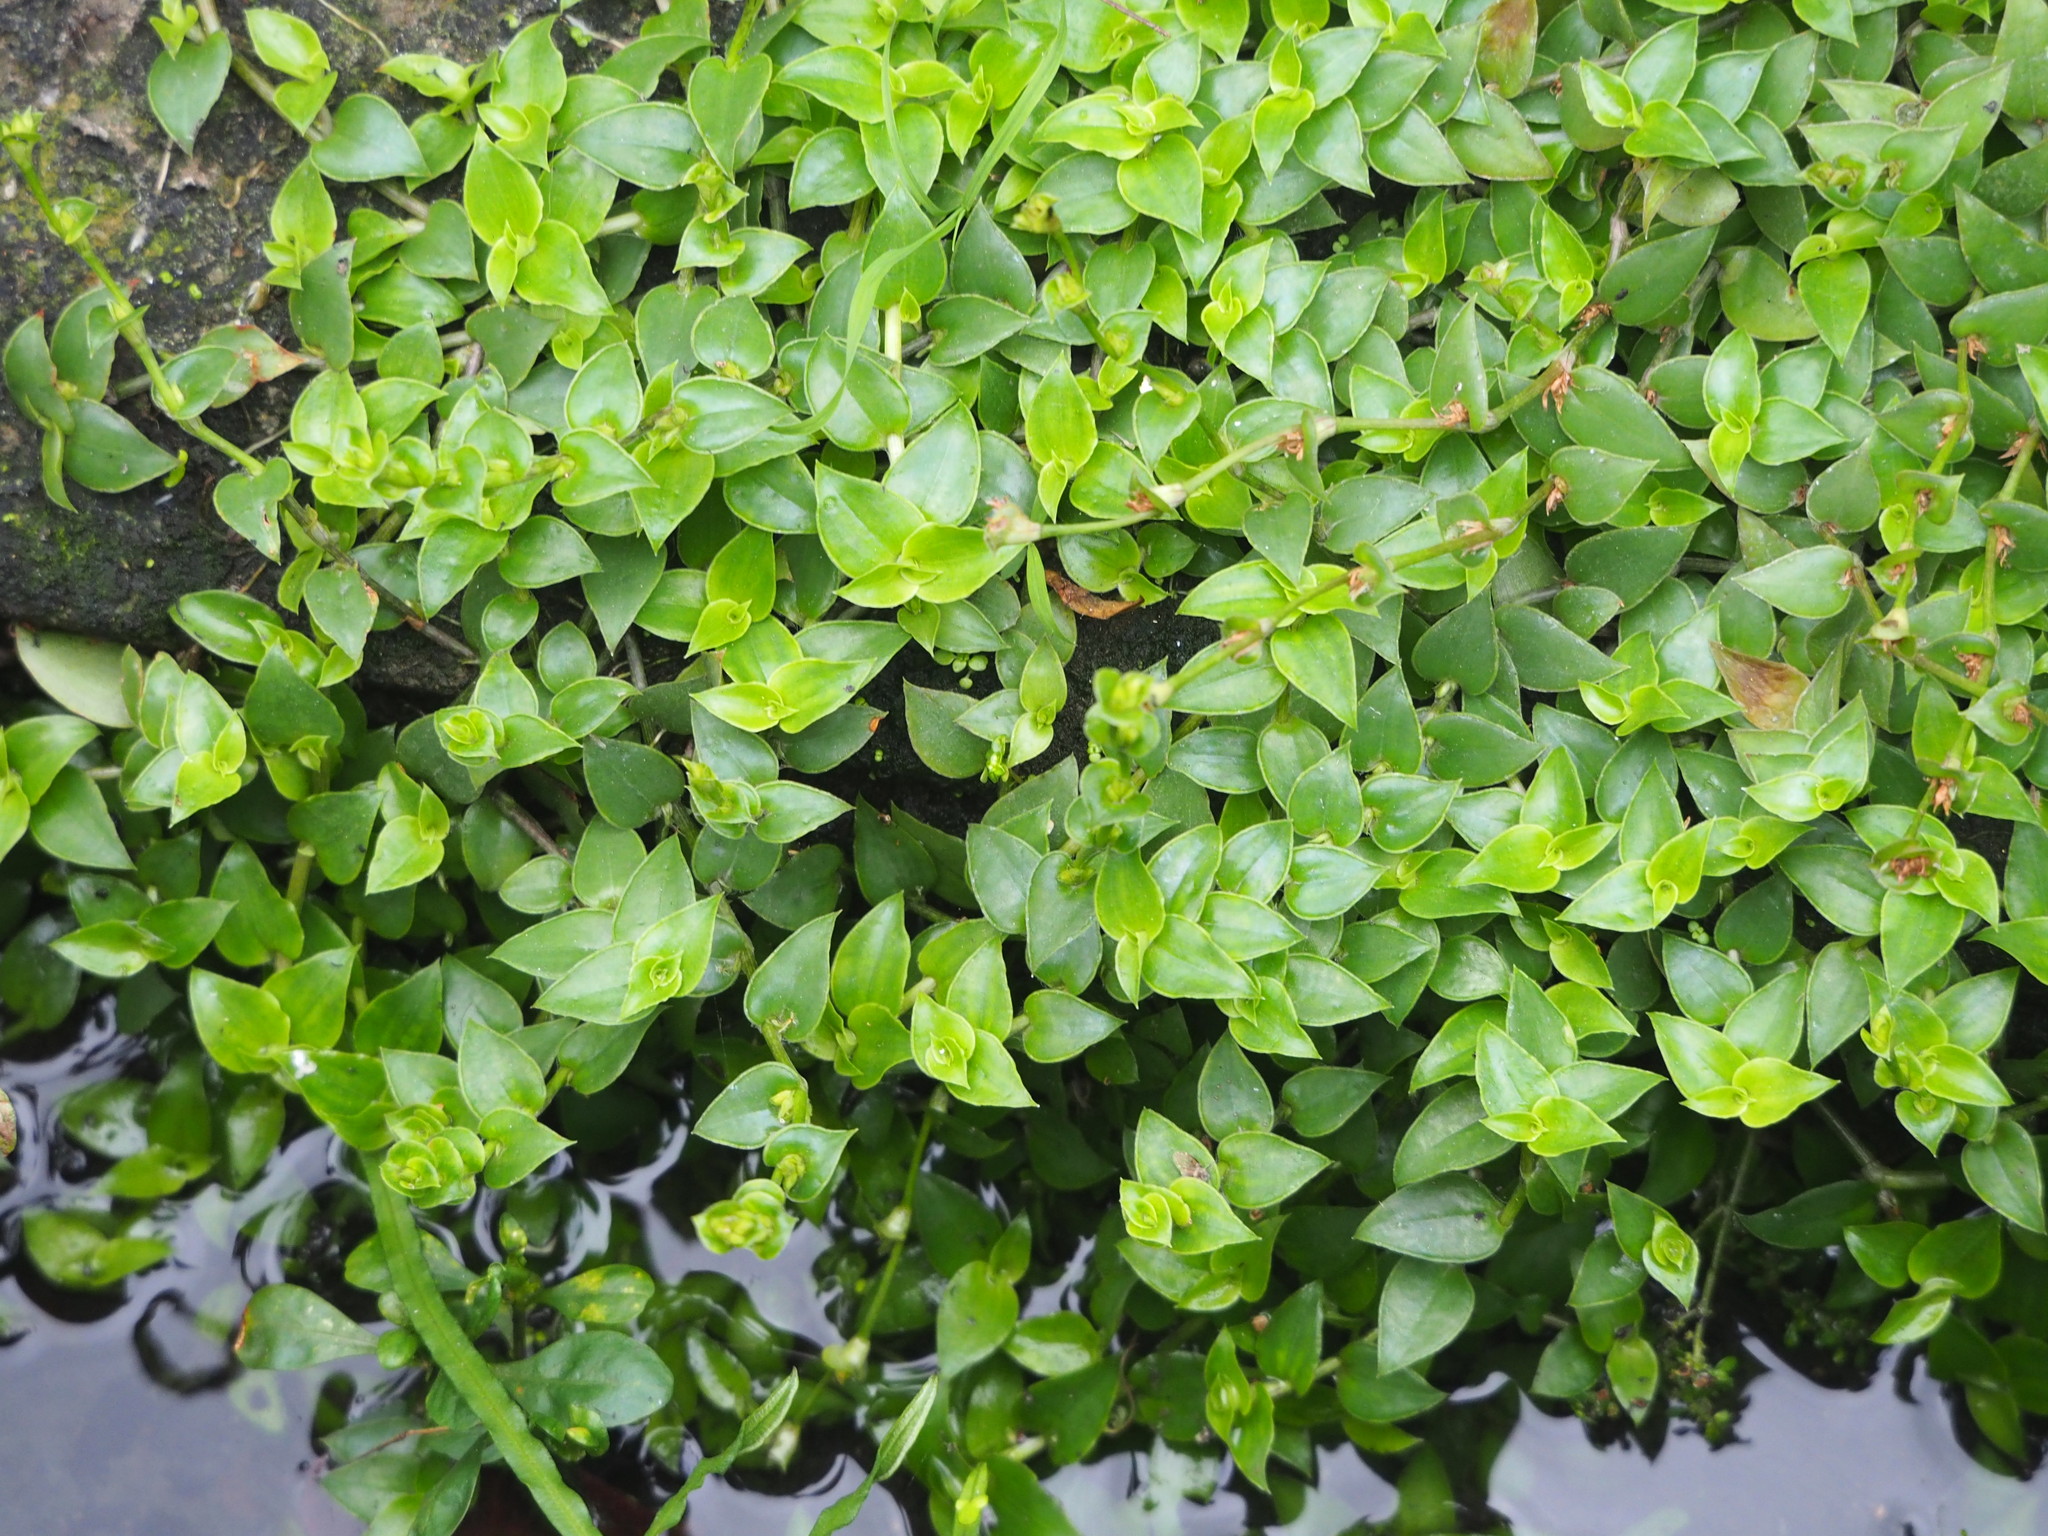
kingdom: Plantae
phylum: Tracheophyta
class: Liliopsida
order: Commelinales
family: Commelinaceae
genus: Callisia
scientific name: Callisia repens
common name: Creeping inchplant
